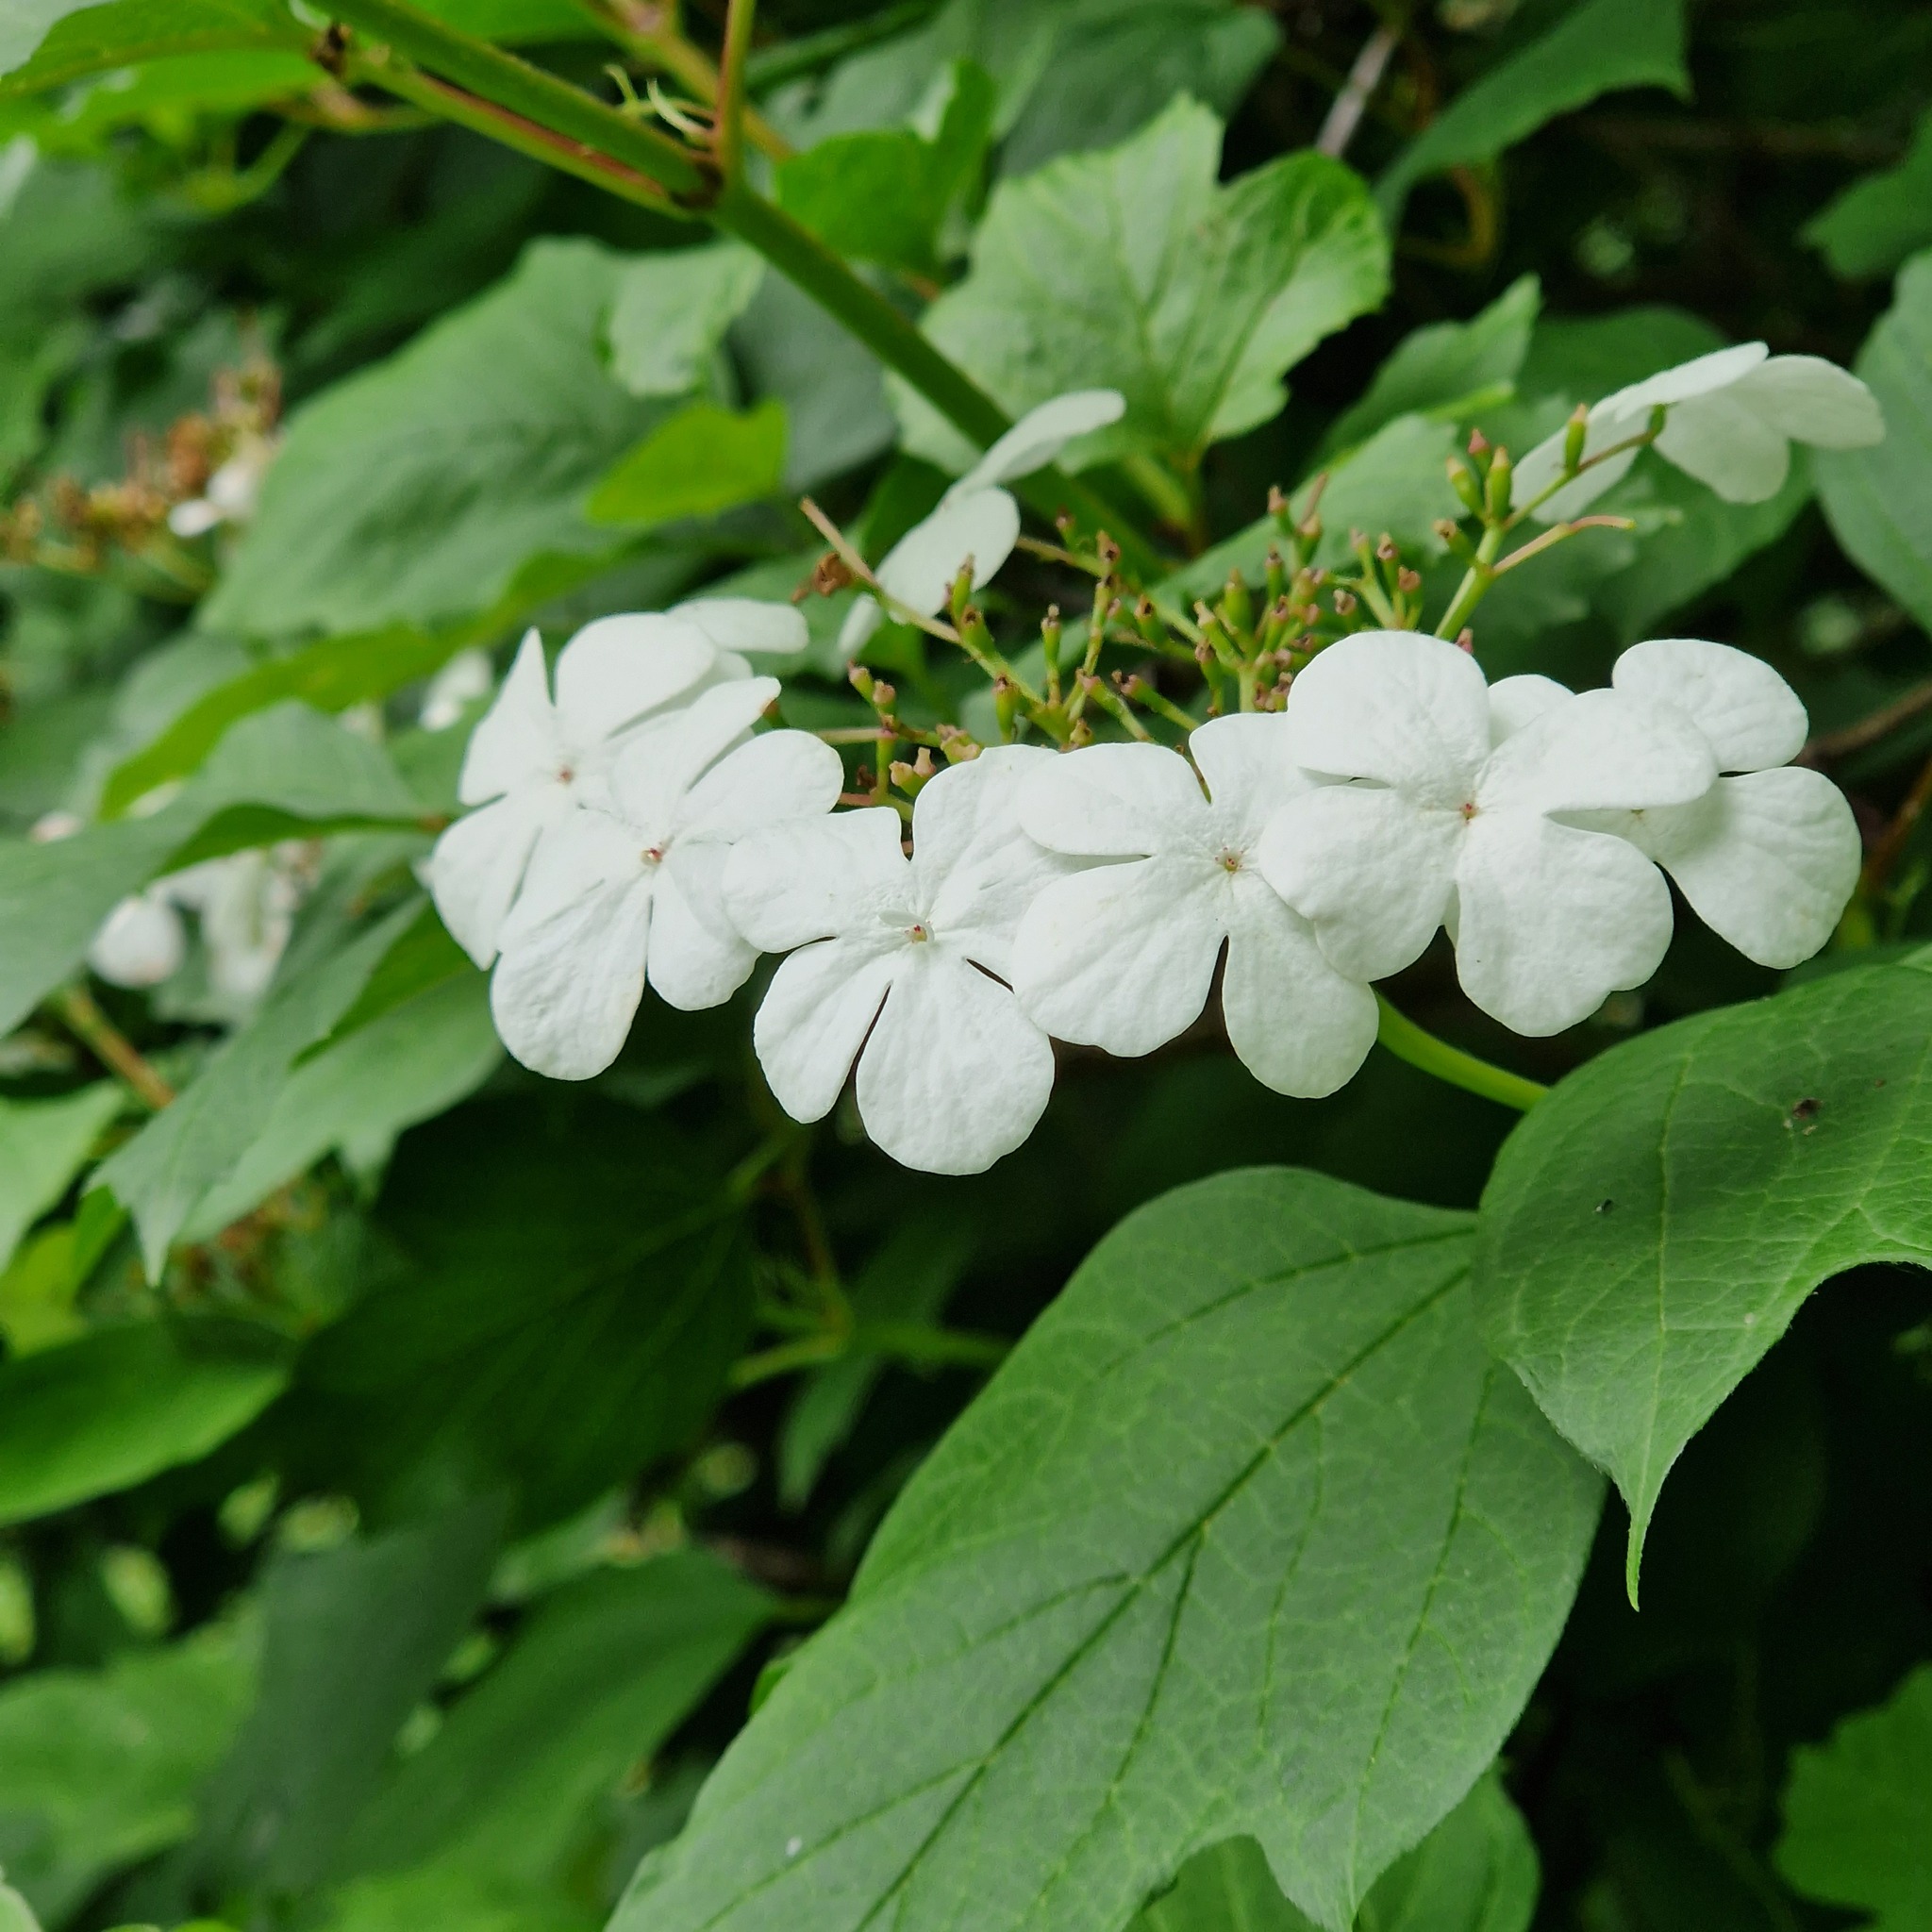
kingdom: Plantae
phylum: Tracheophyta
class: Magnoliopsida
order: Dipsacales
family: Viburnaceae
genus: Viburnum
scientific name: Viburnum opulus
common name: Guelder-rose
